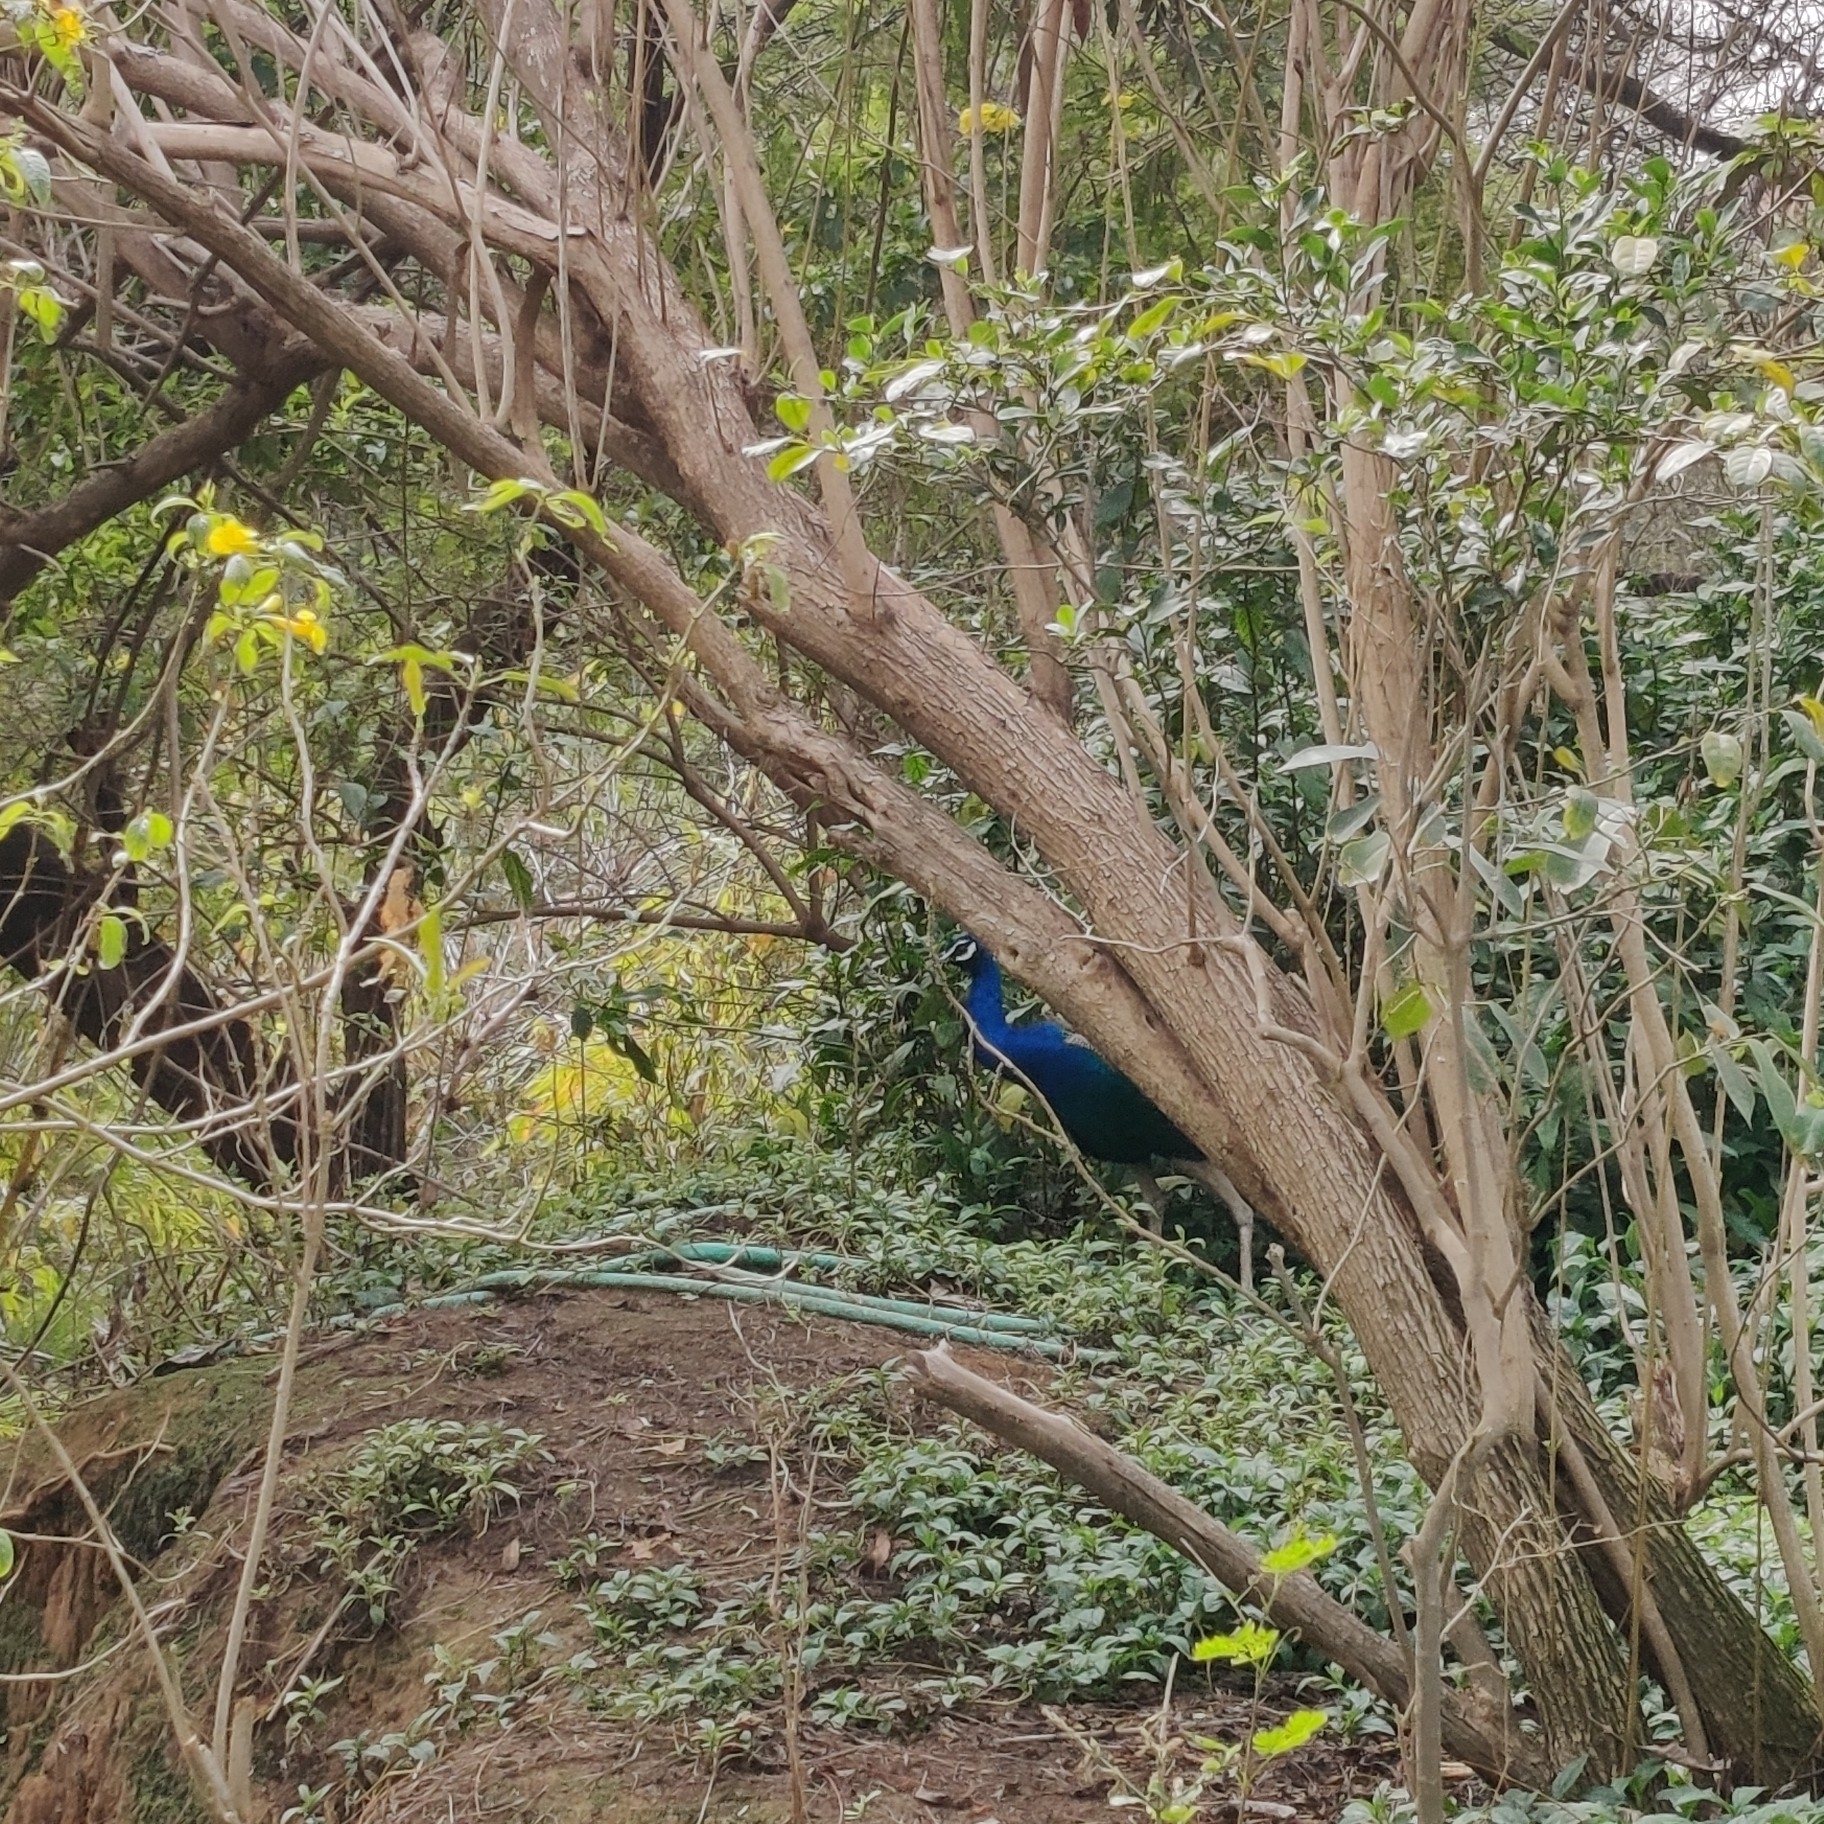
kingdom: Animalia
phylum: Chordata
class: Aves
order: Galliformes
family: Phasianidae
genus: Pavo
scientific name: Pavo cristatus
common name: Indian peafowl
